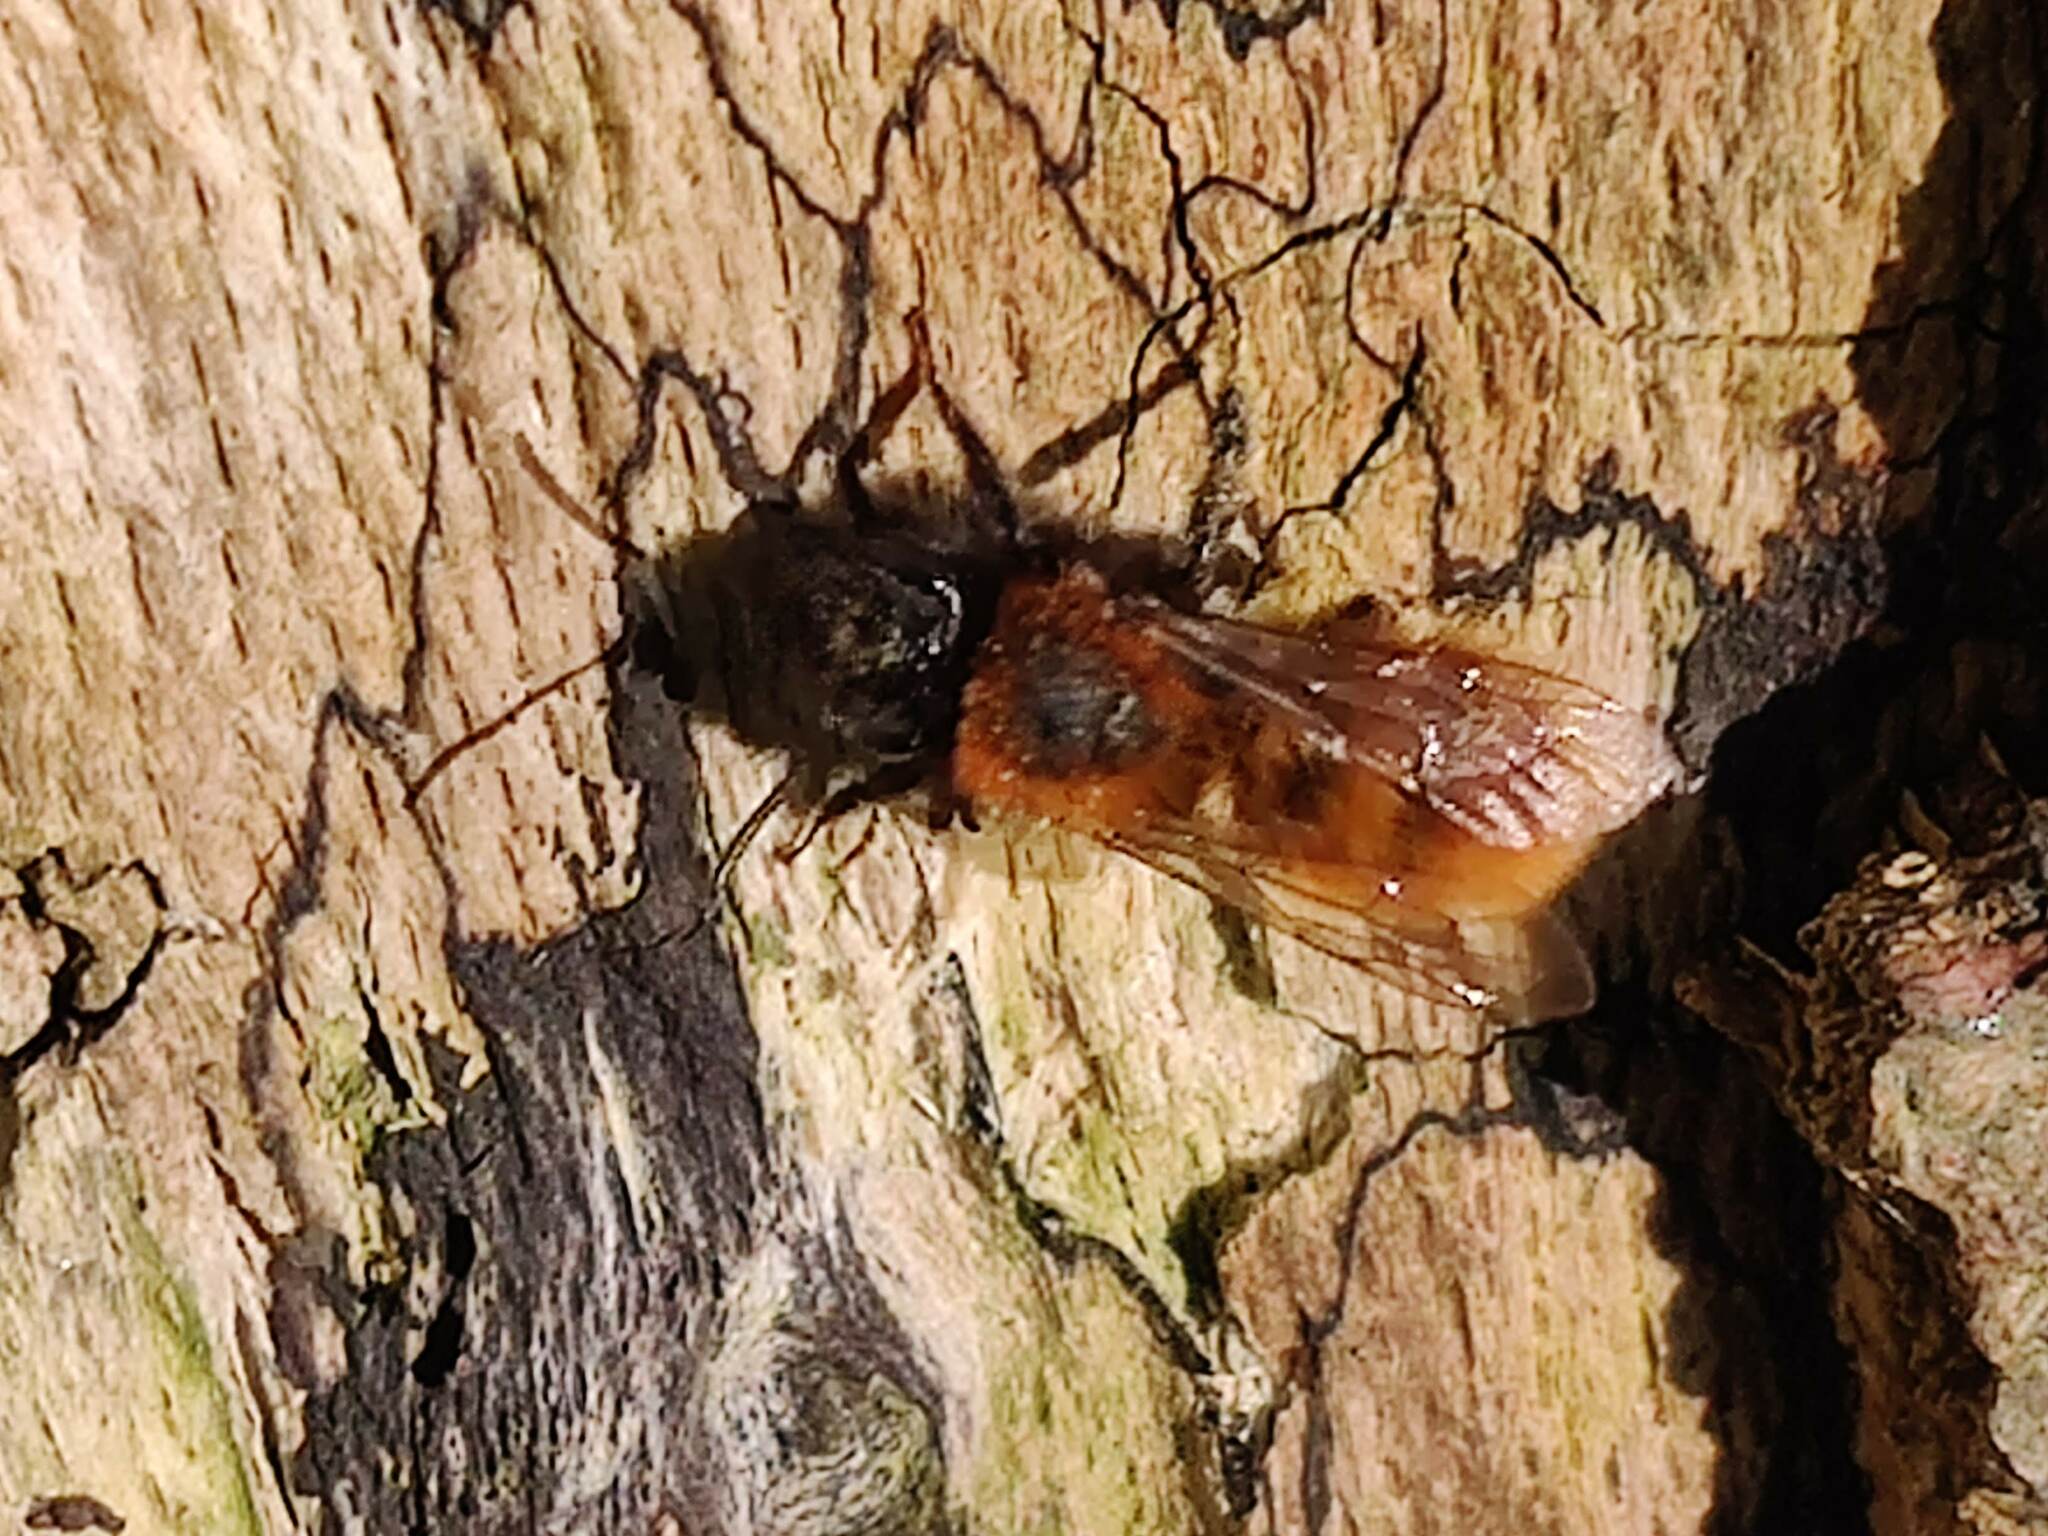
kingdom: Animalia
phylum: Arthropoda
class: Insecta
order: Hymenoptera
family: Andrenidae
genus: Andrena
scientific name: Andrena fulva
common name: Tawny mining bee
